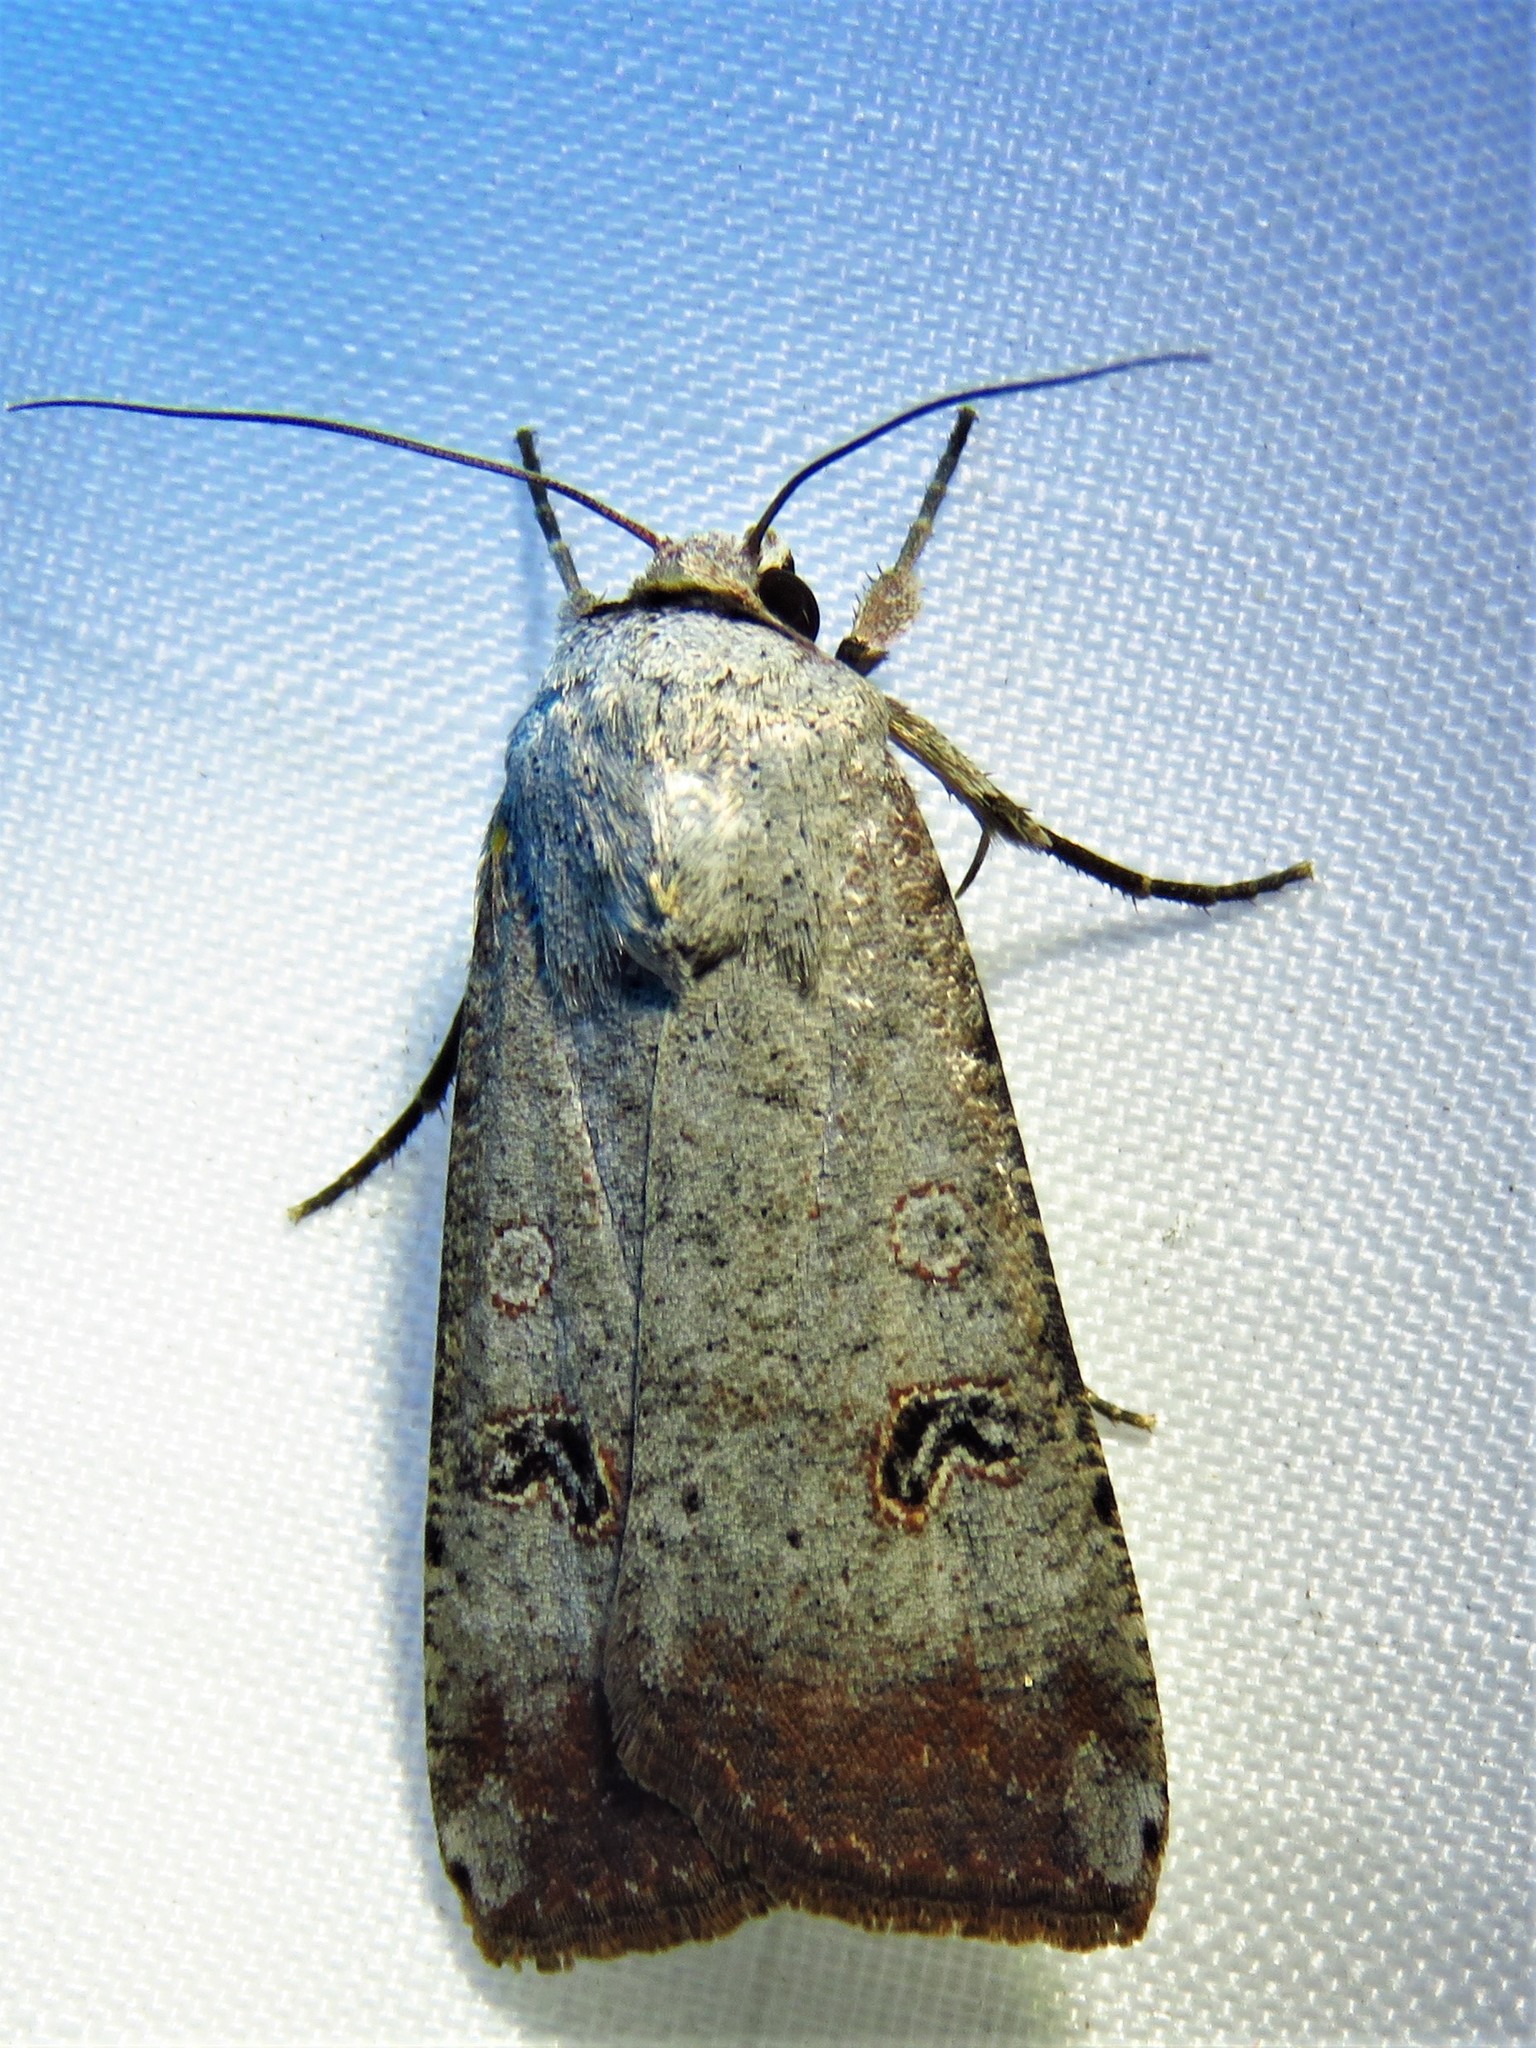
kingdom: Animalia
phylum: Arthropoda
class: Insecta
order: Lepidoptera
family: Noctuidae
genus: Anicla
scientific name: Anicla infecta
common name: Green cutworm
